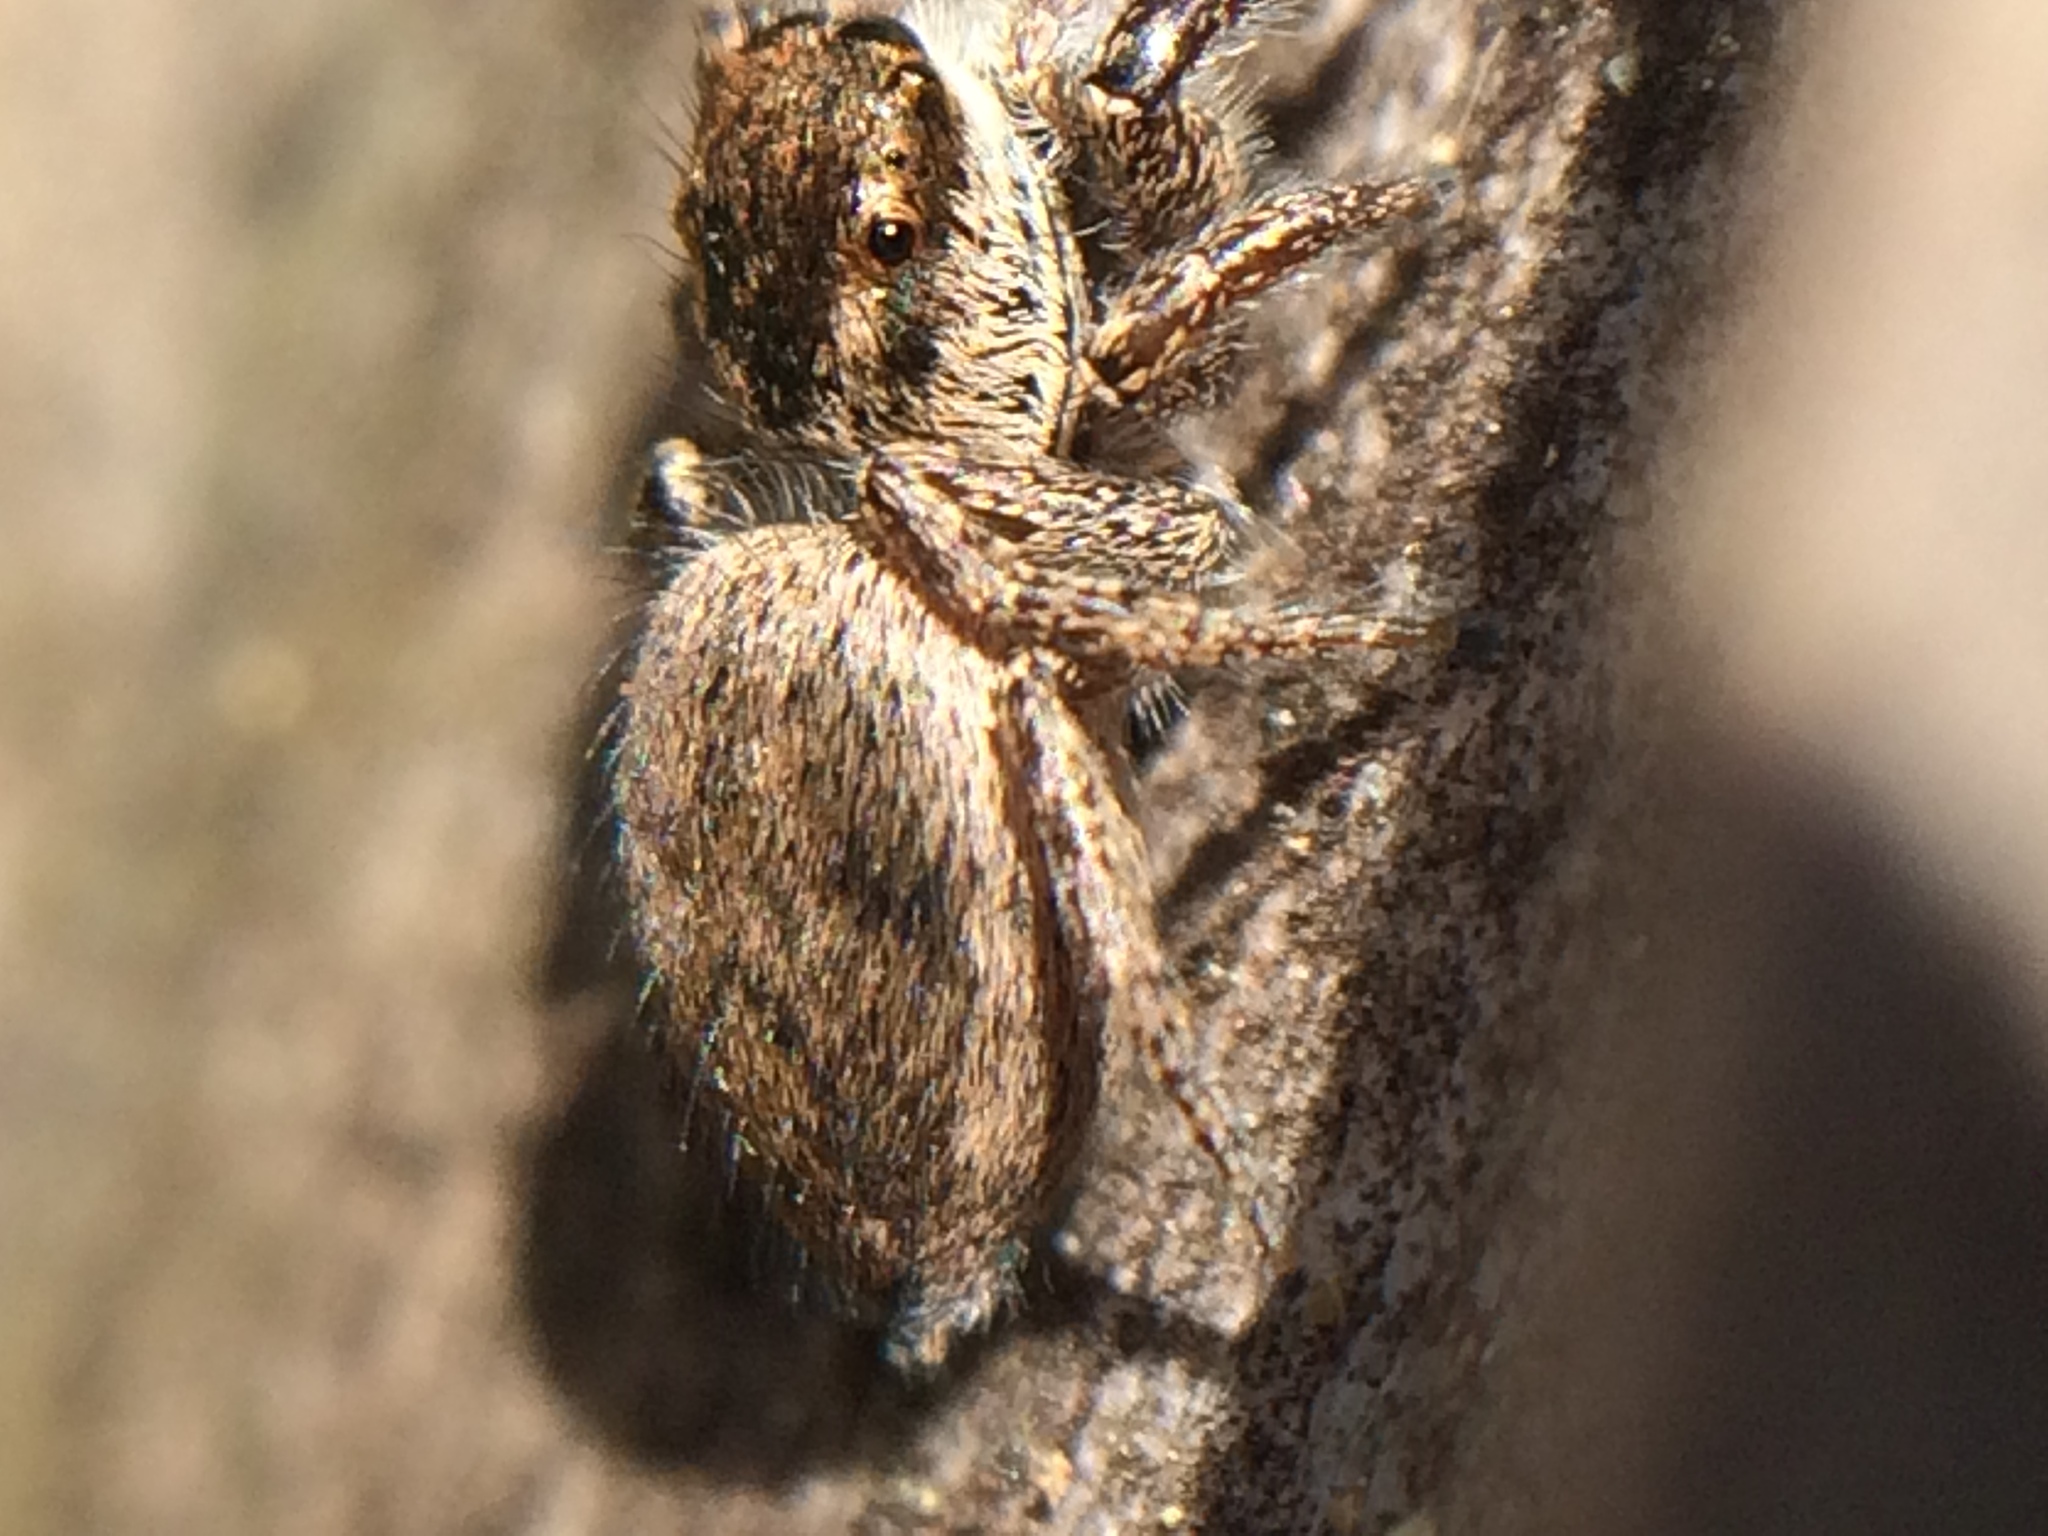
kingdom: Animalia
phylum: Arthropoda
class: Arachnida
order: Araneae
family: Salticidae
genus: Habronattus
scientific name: Habronattus pyrrithrix
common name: Jumping spider
